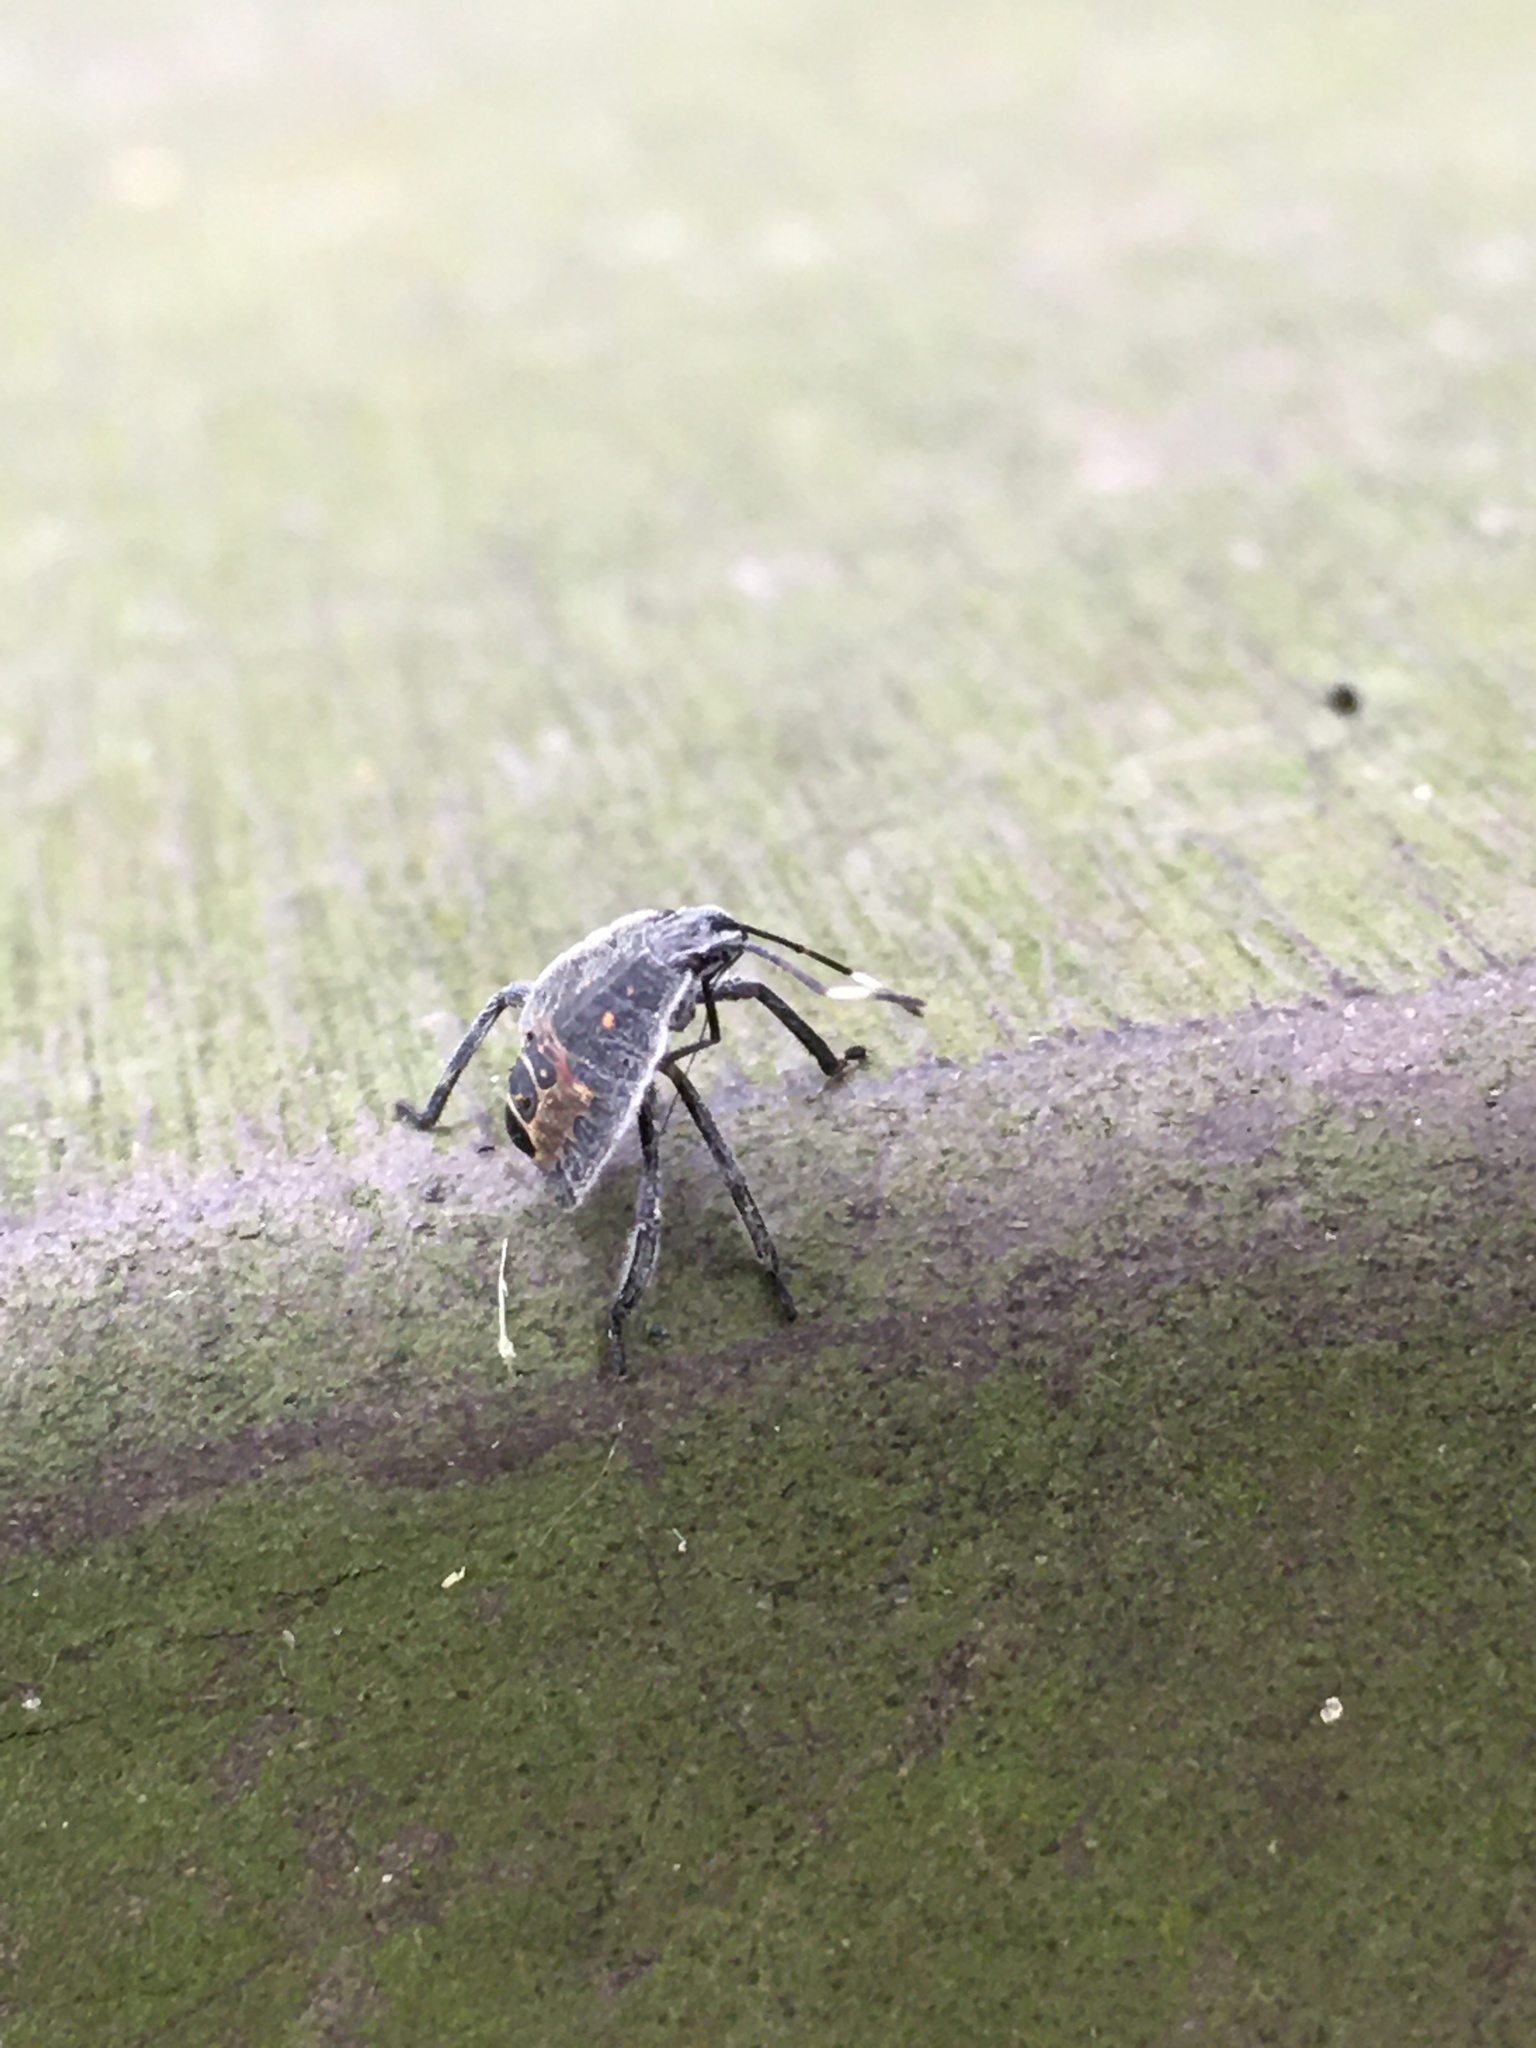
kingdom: Animalia
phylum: Arthropoda
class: Insecta
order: Hemiptera
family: Pentatomidae
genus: Erthesina
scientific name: Erthesina fullo
